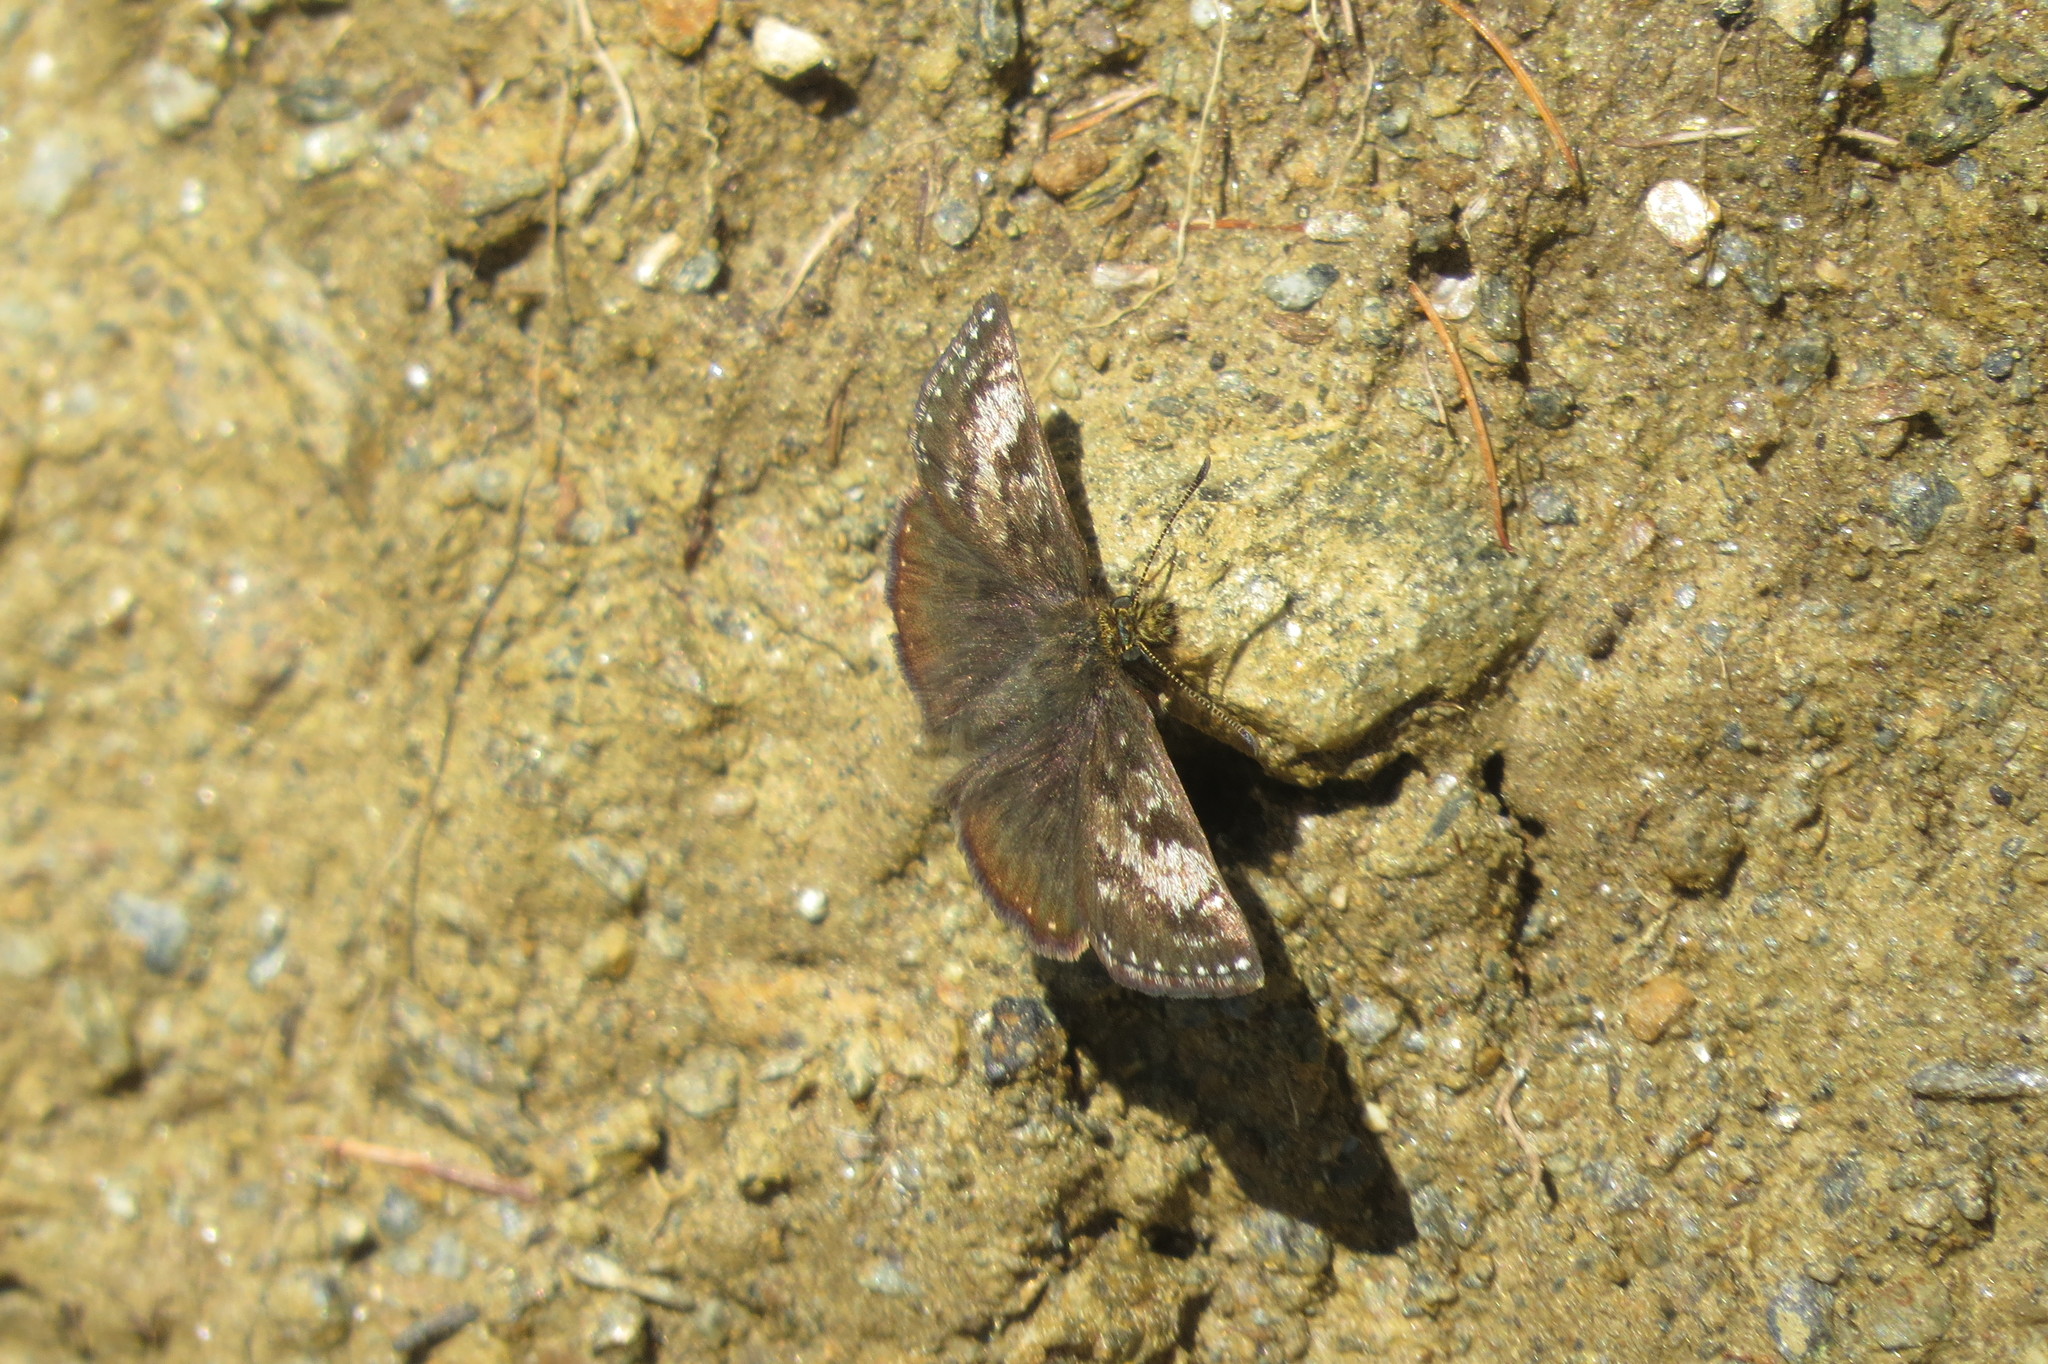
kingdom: Animalia
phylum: Arthropoda
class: Insecta
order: Lepidoptera
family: Hesperiidae
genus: Erynnis
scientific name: Erynnis tages
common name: Dingy skipper
